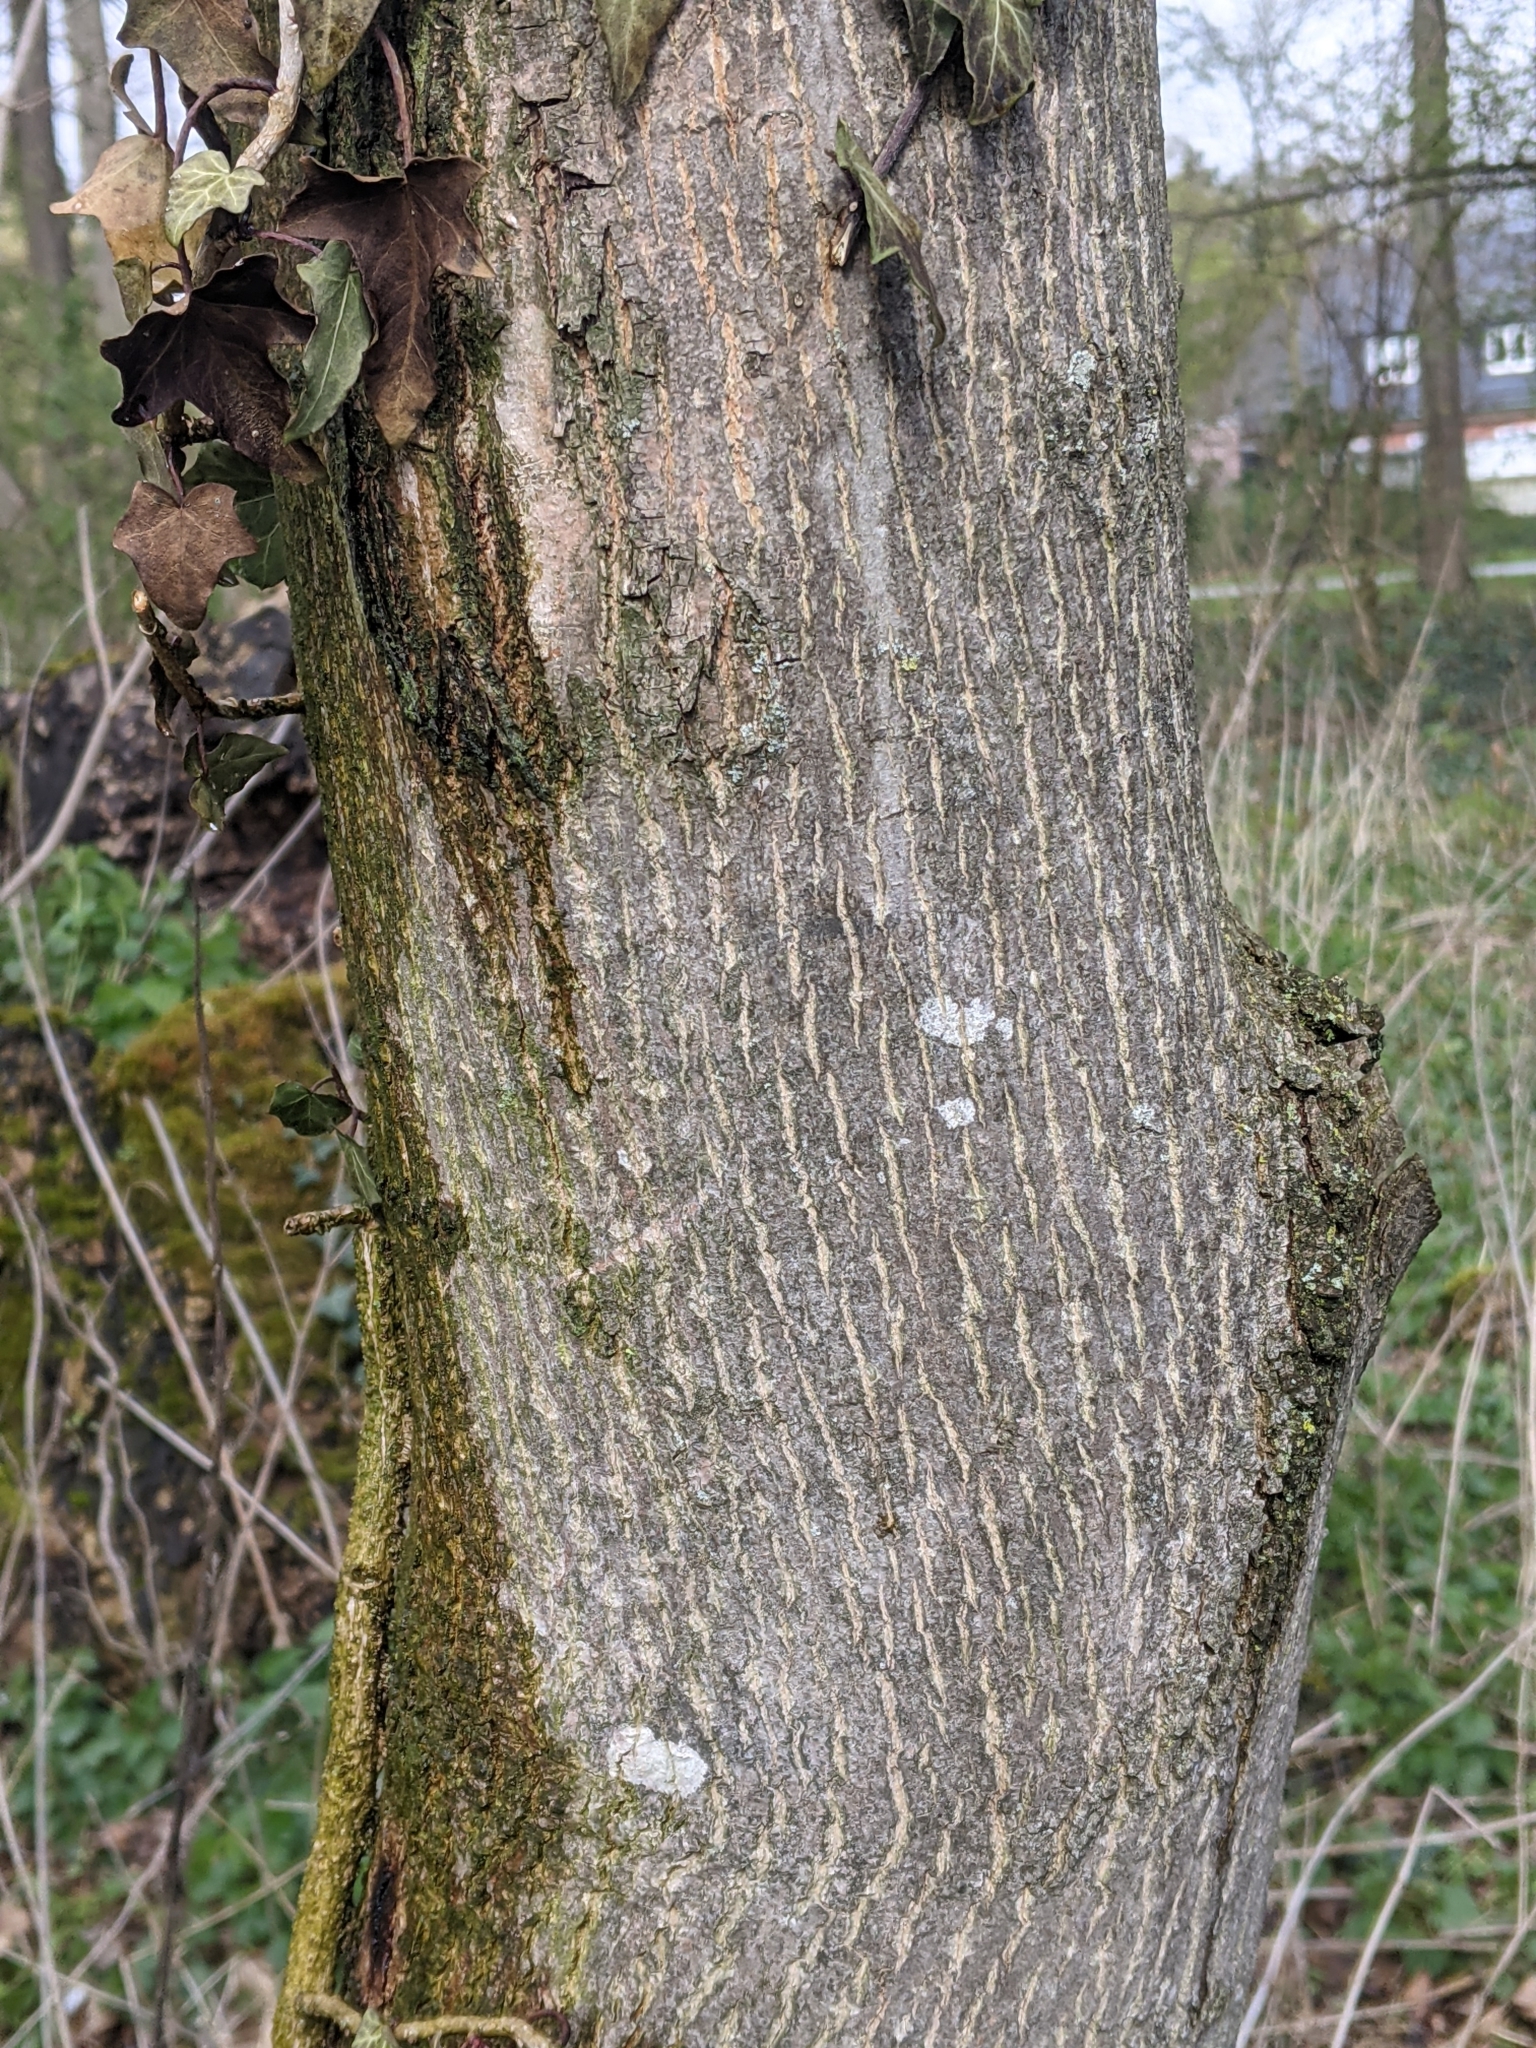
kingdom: Plantae
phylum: Tracheophyta
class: Magnoliopsida
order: Sapindales
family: Sapindaceae
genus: Acer
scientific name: Acer platanoides
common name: Norway maple
